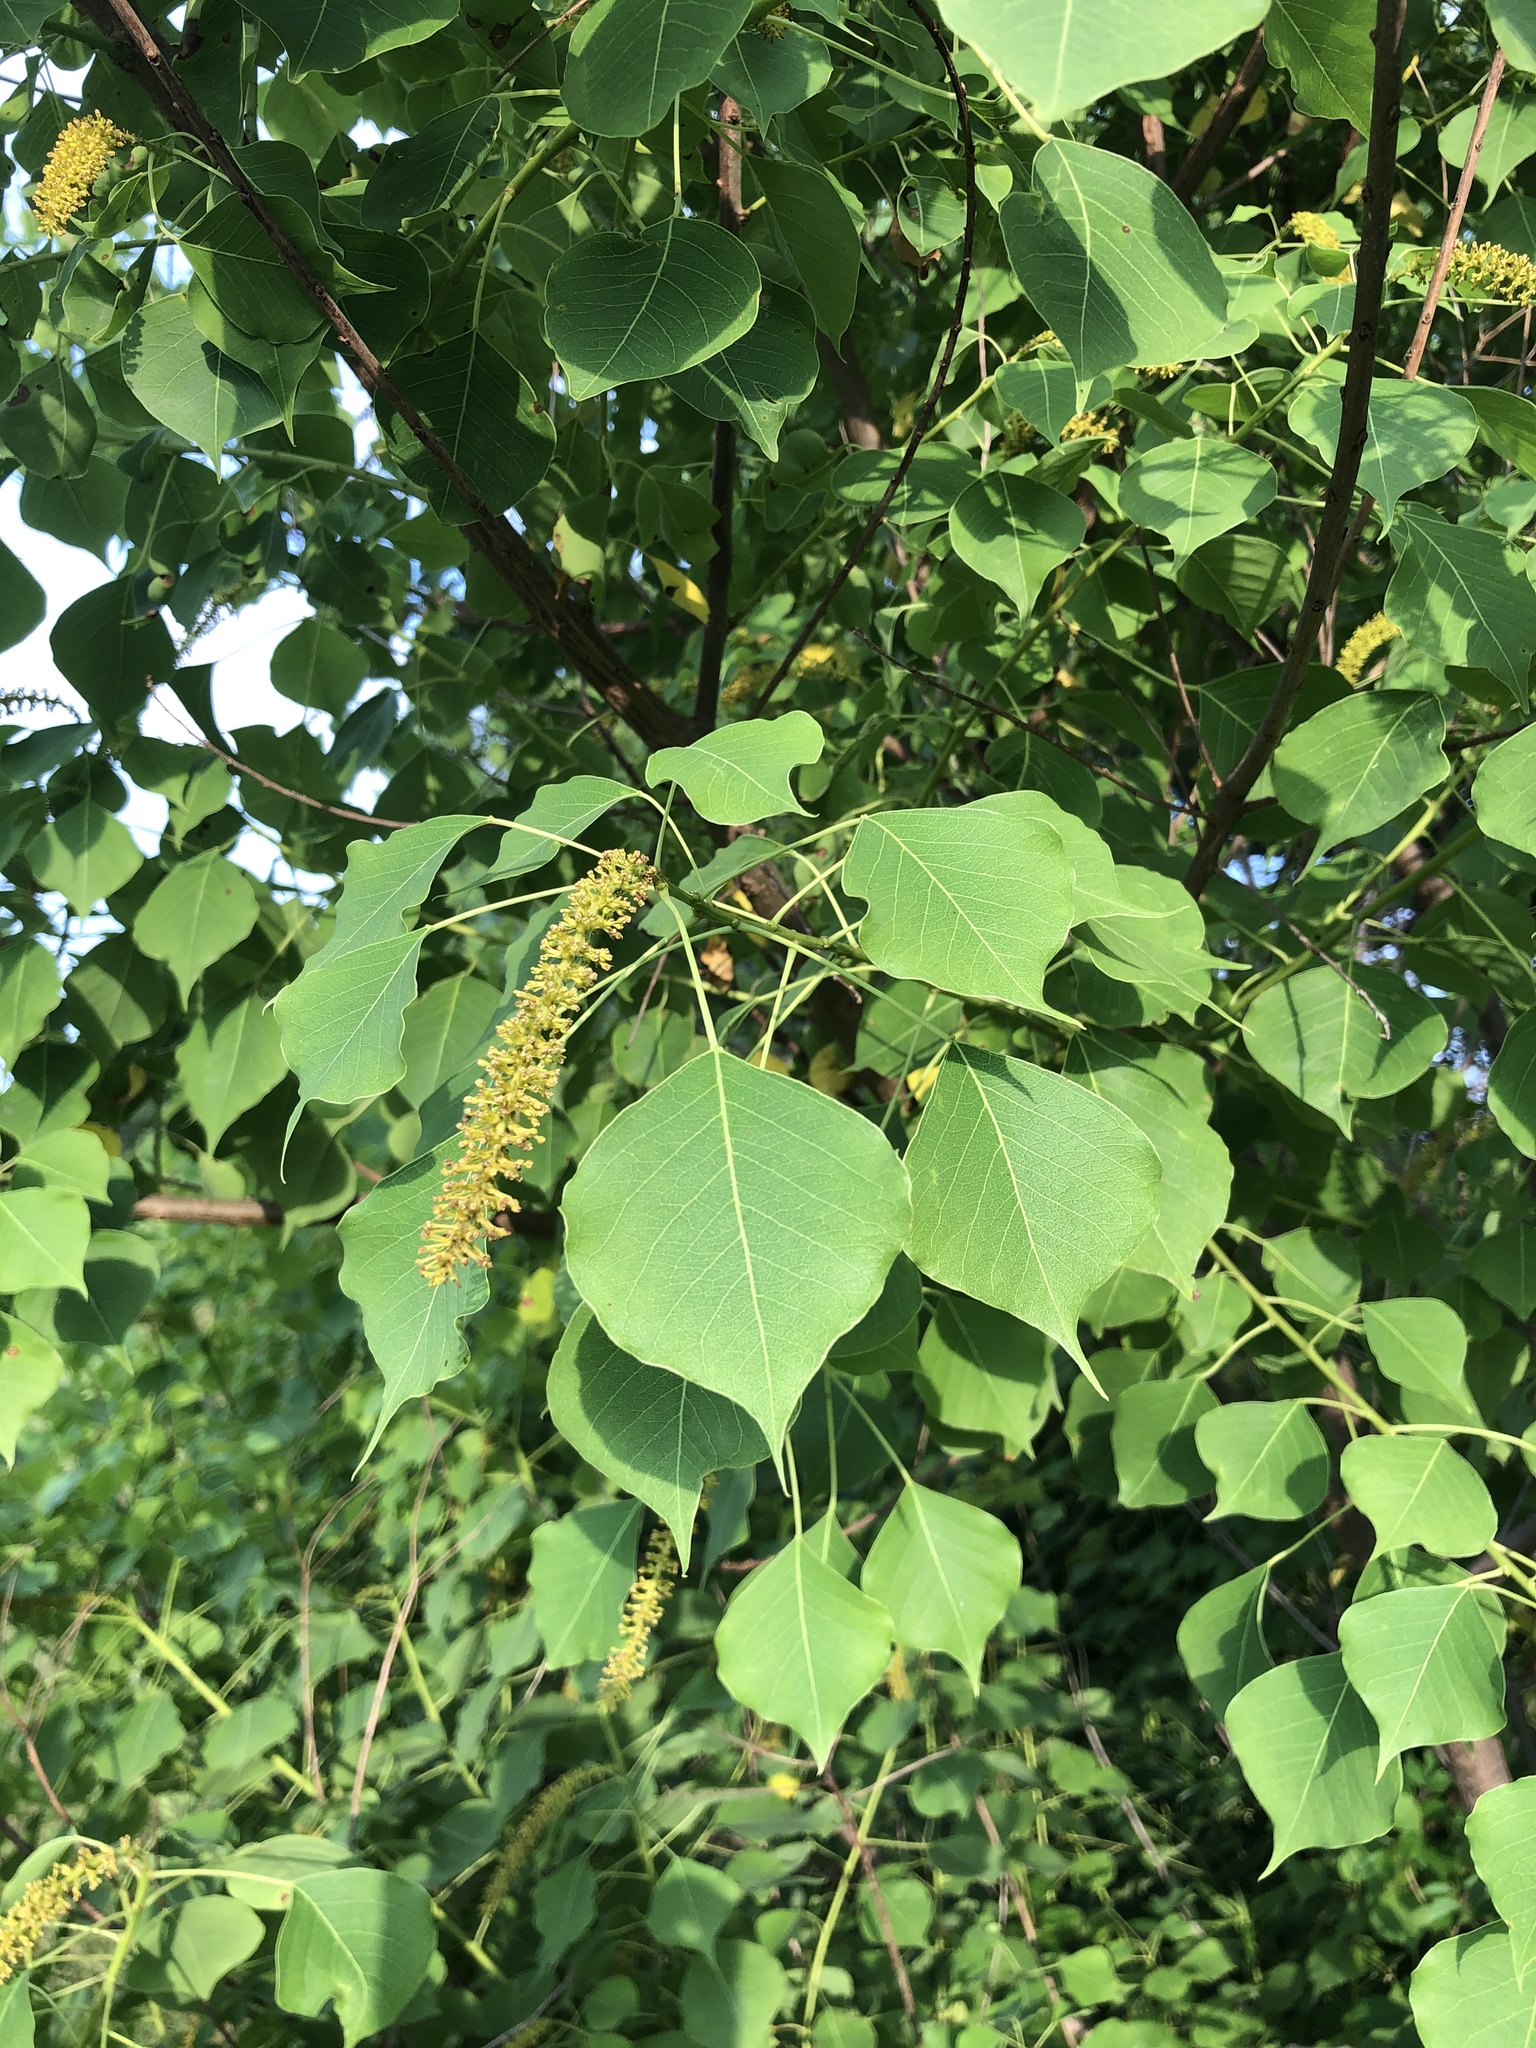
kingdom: Plantae
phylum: Tracheophyta
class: Magnoliopsida
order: Malpighiales
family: Euphorbiaceae
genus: Triadica
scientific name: Triadica sebifera
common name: Chinese tallow
